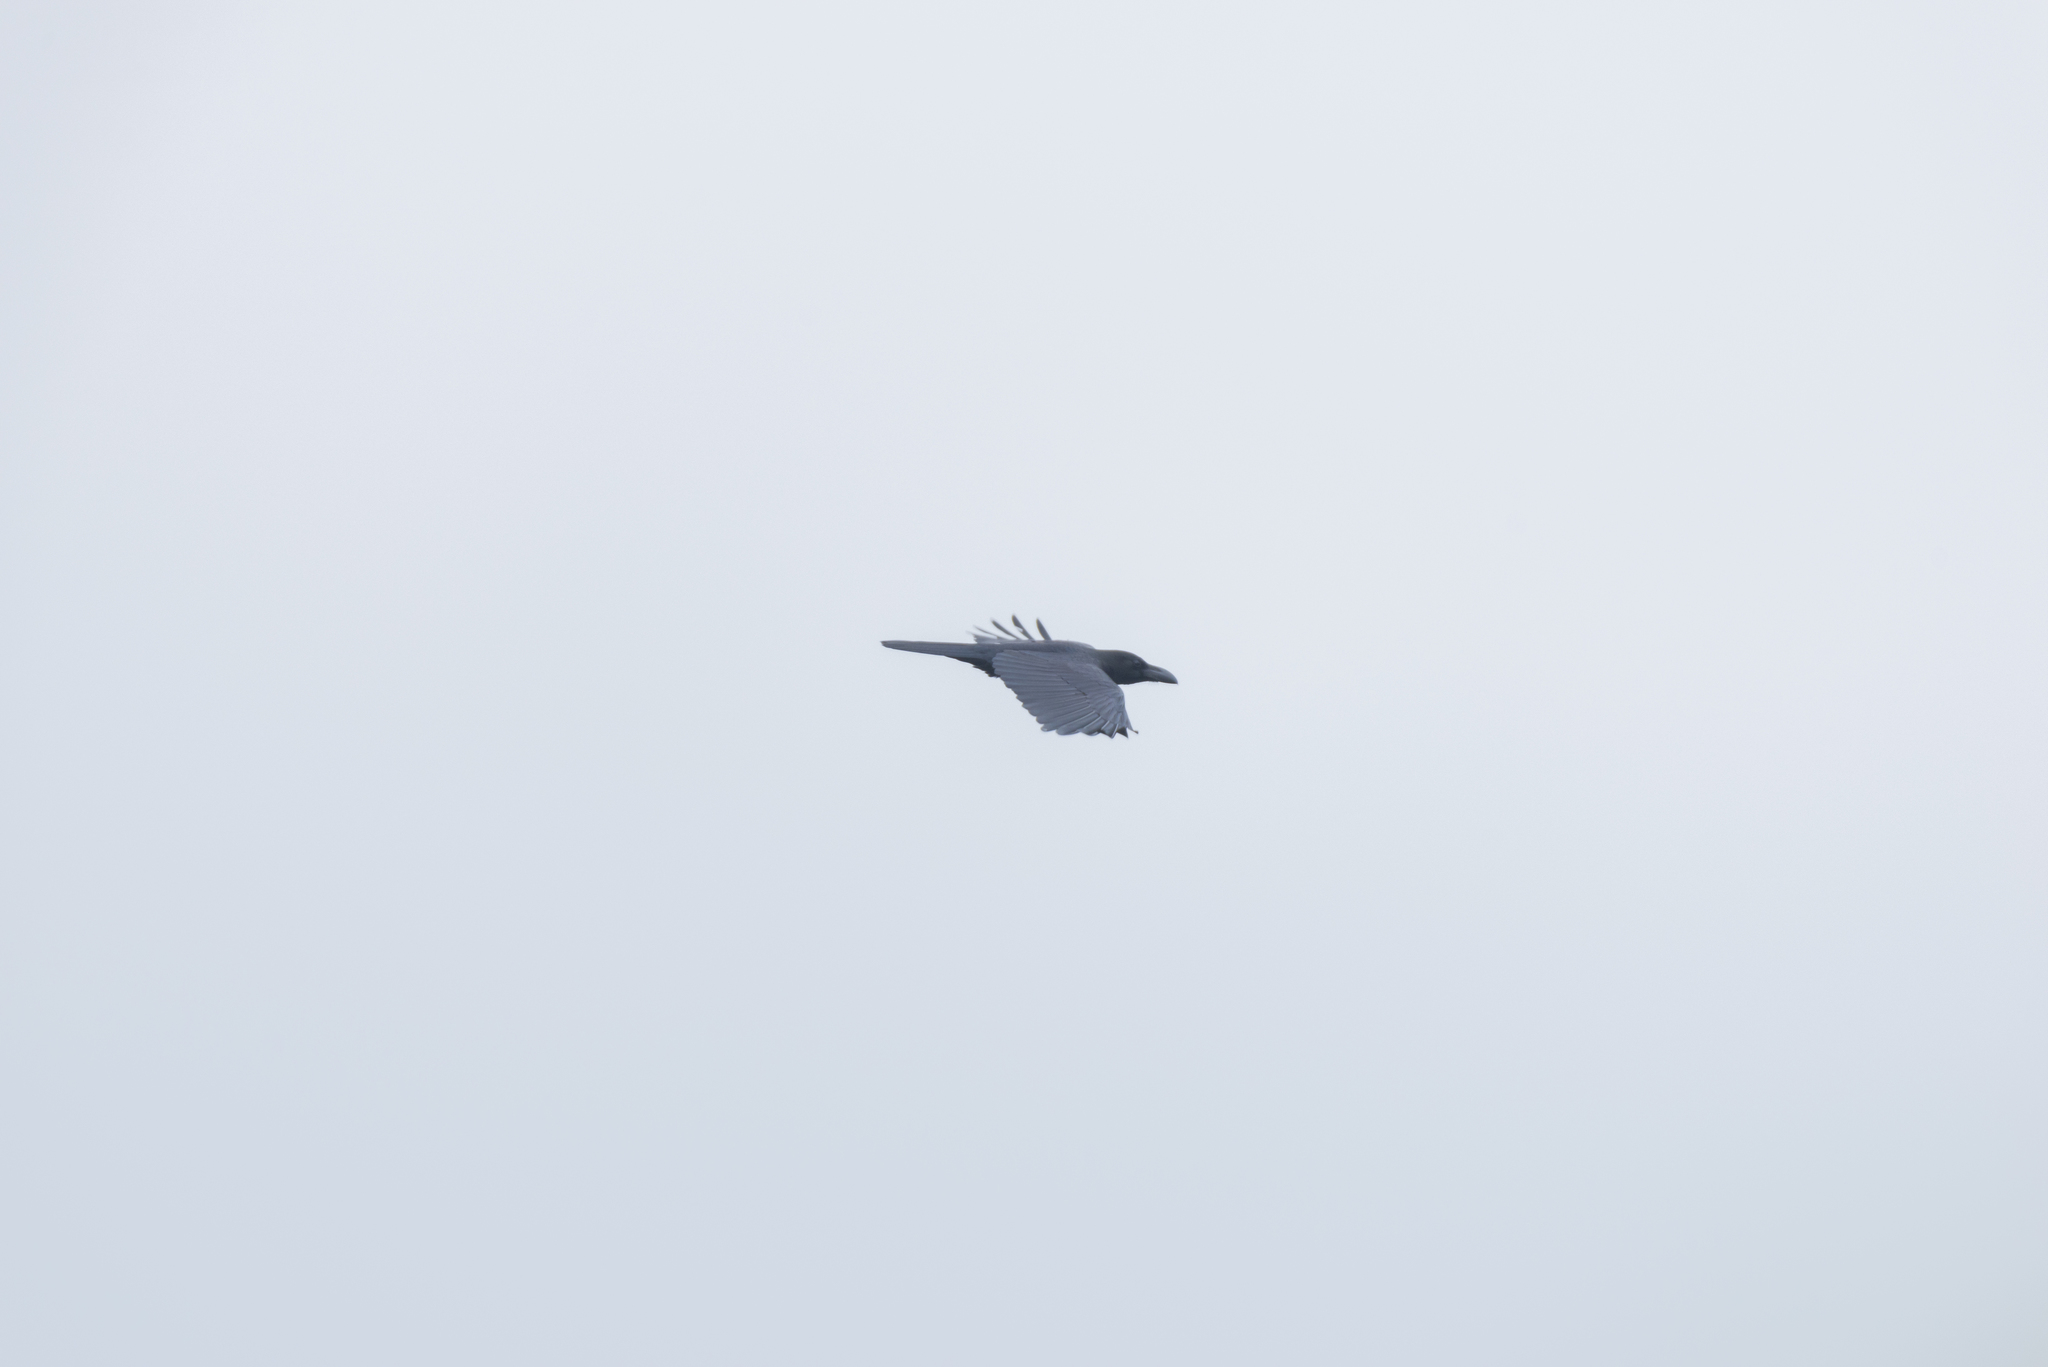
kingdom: Animalia
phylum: Chordata
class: Aves
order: Passeriformes
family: Corvidae
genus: Corvus
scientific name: Corvus macrorhynchos
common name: Large-billed crow
